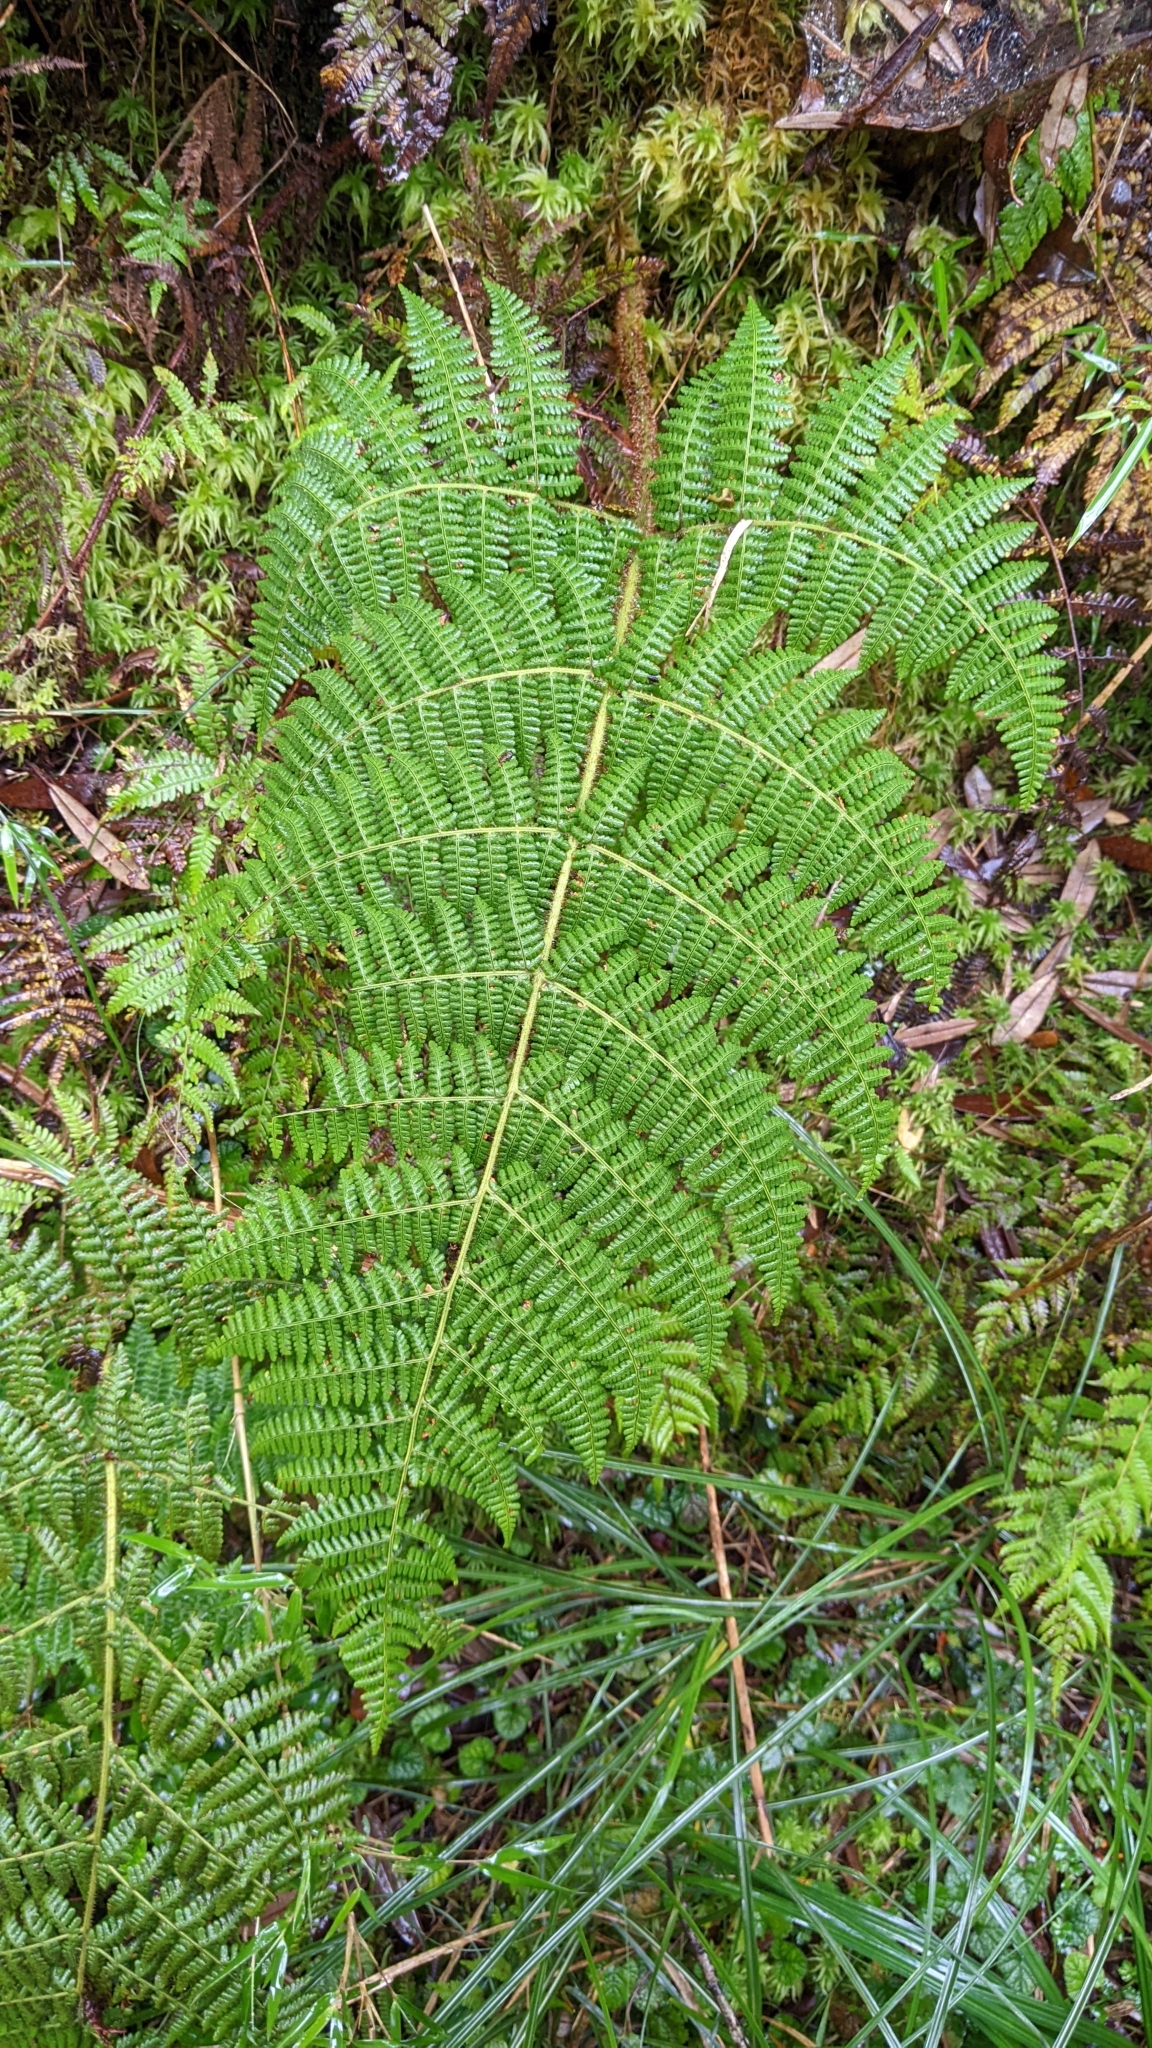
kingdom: Plantae
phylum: Tracheophyta
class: Polypodiopsida
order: Polypodiales
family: Dryopteridaceae
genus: Dryopteris
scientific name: Dryopteris peranema
